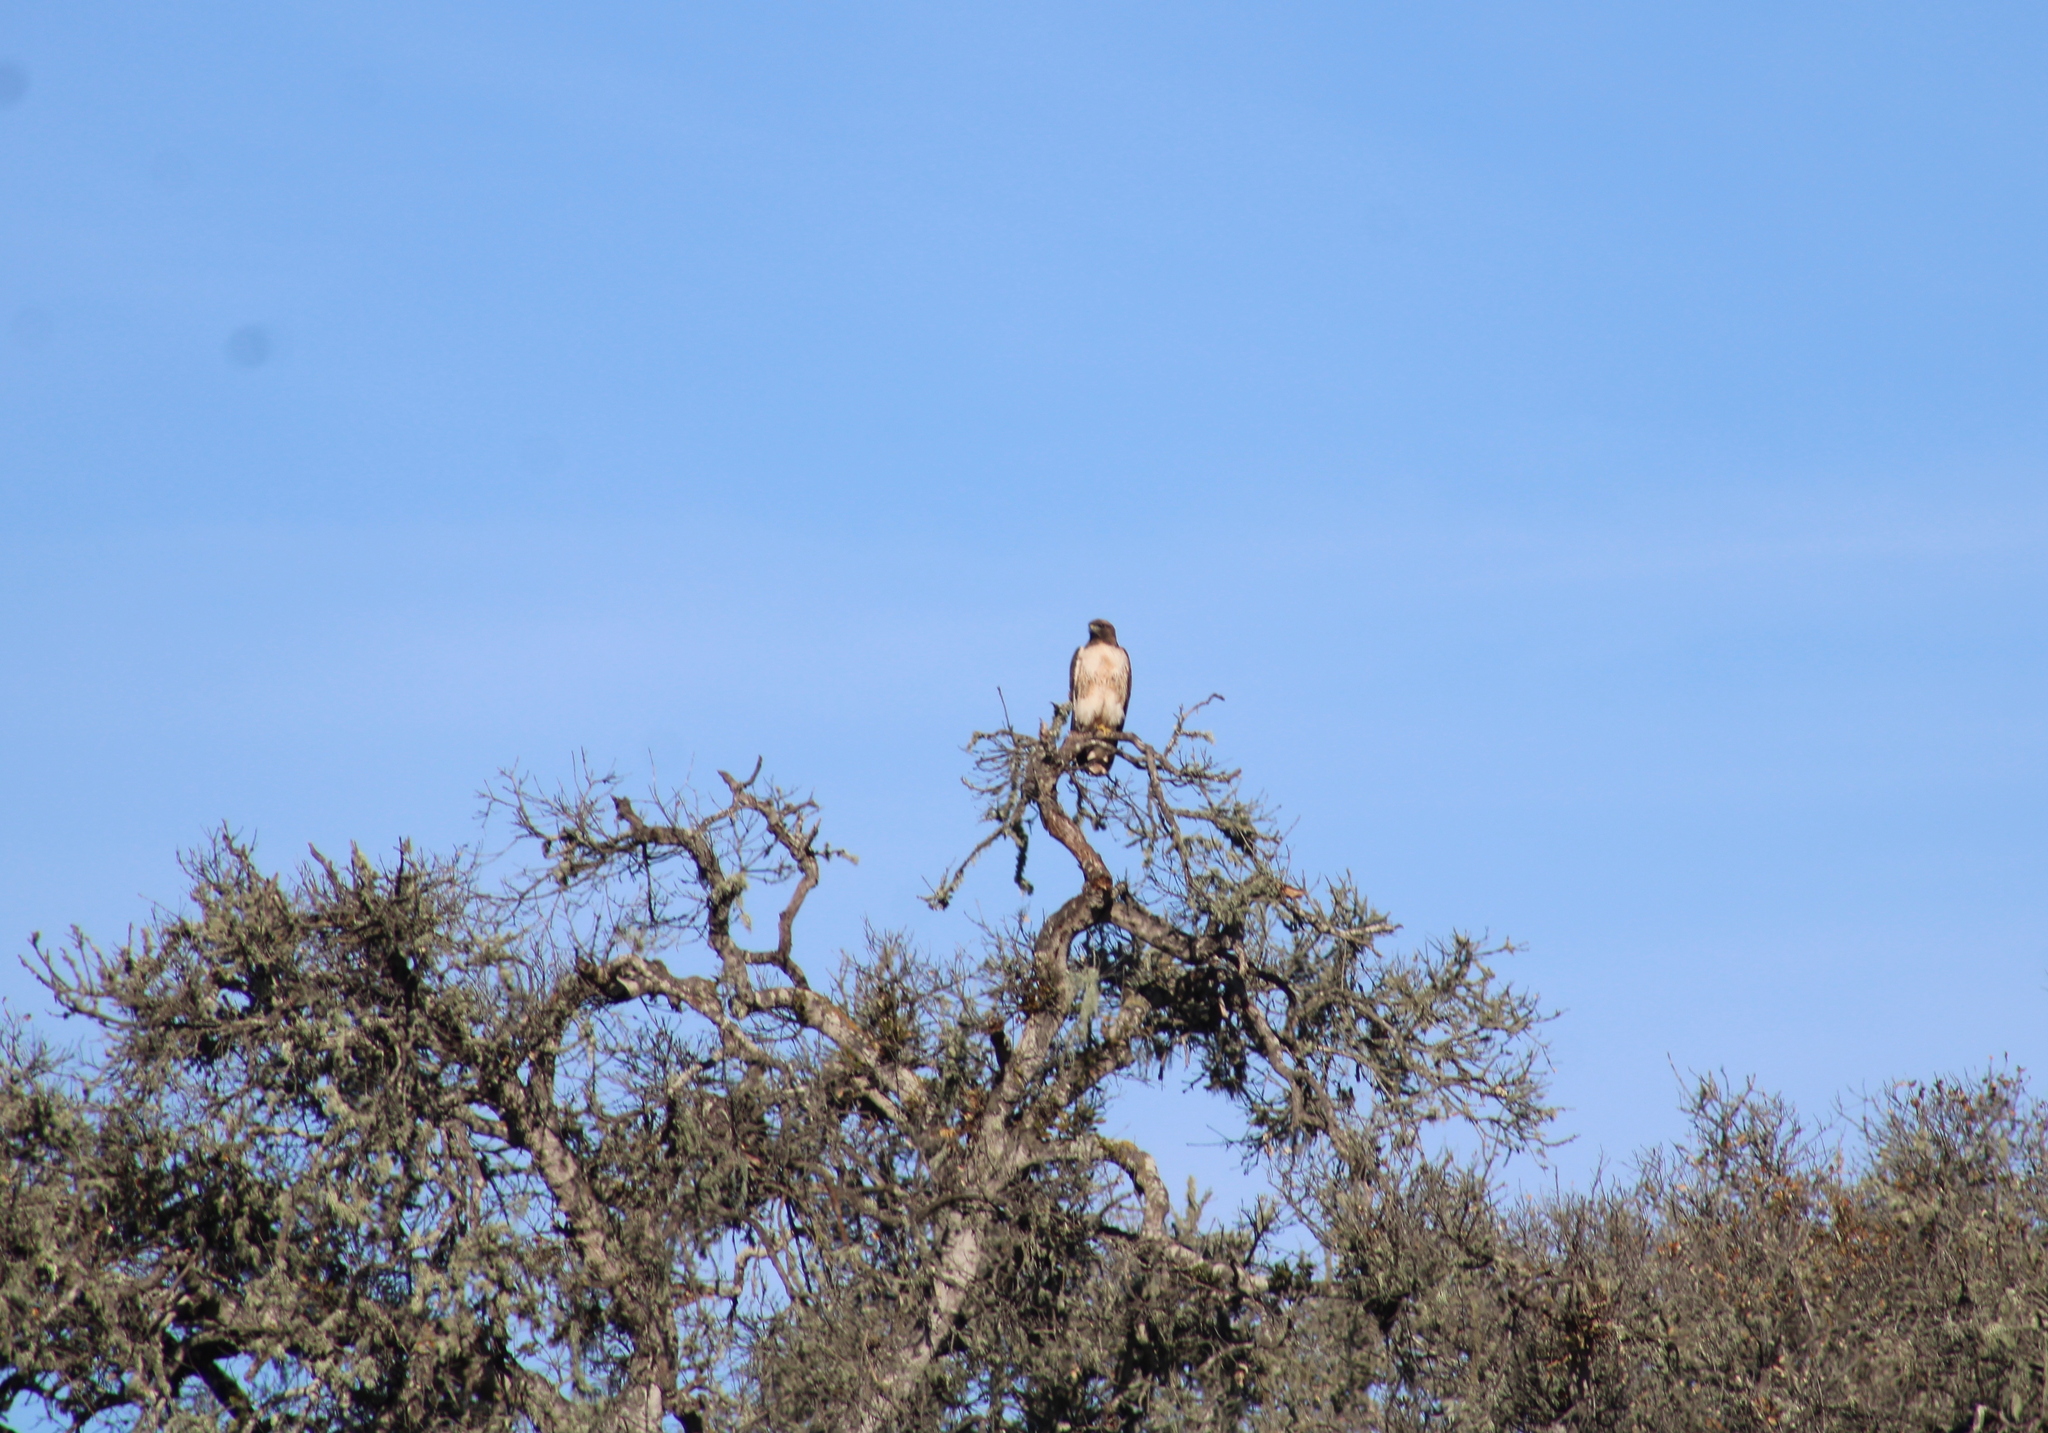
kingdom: Animalia
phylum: Chordata
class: Aves
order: Accipitriformes
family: Accipitridae
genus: Buteo
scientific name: Buteo jamaicensis
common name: Red-tailed hawk
